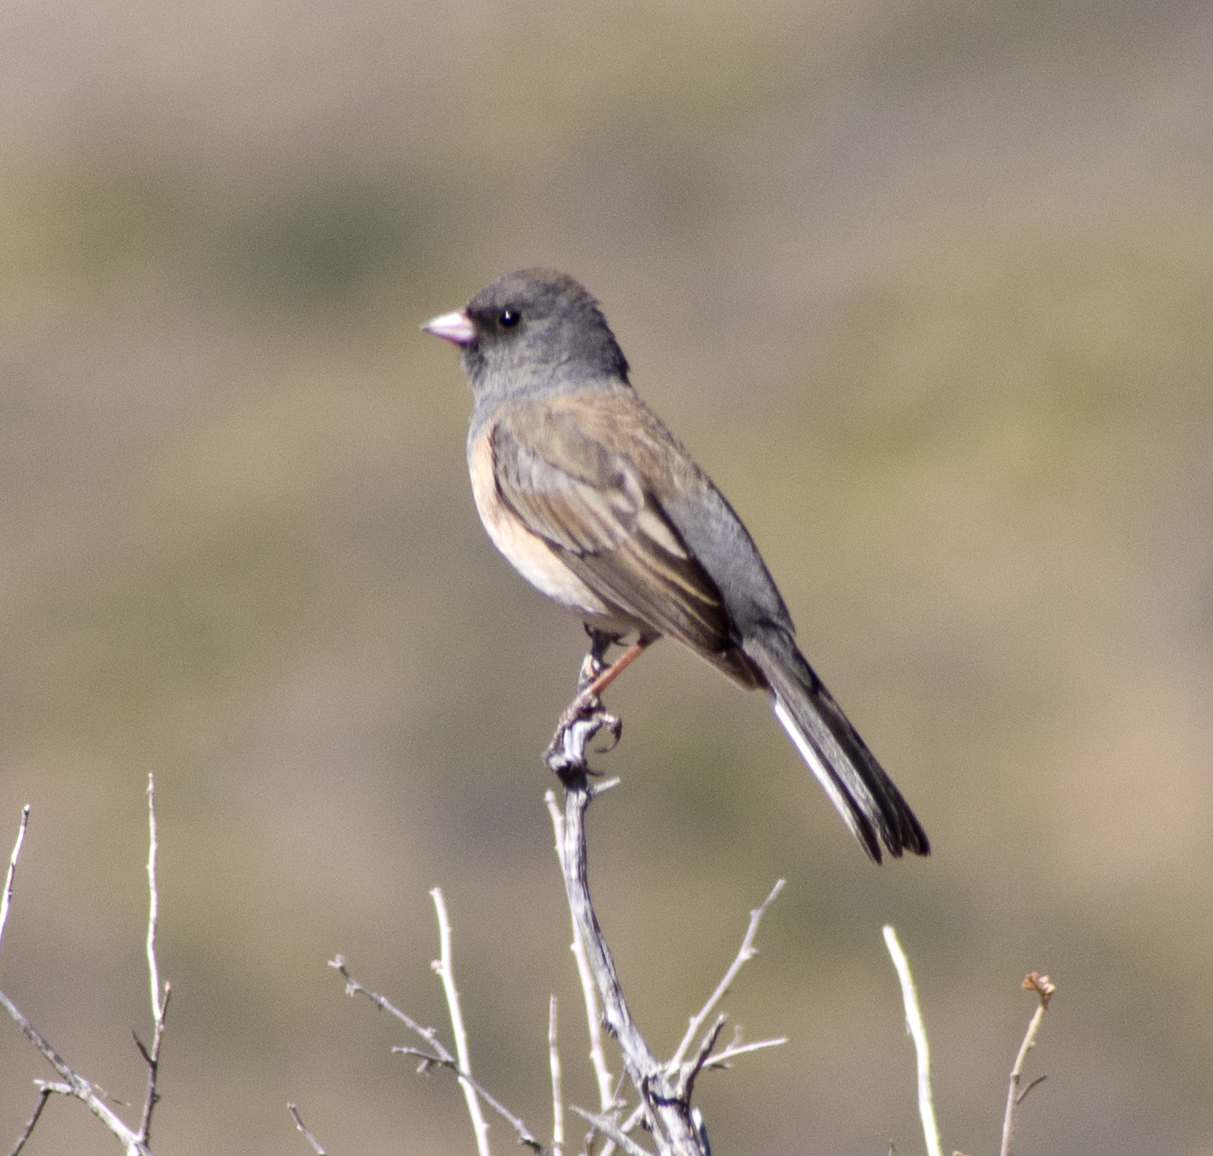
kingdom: Animalia
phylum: Chordata
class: Aves
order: Passeriformes
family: Passerellidae
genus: Junco
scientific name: Junco hyemalis
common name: Dark-eyed junco
